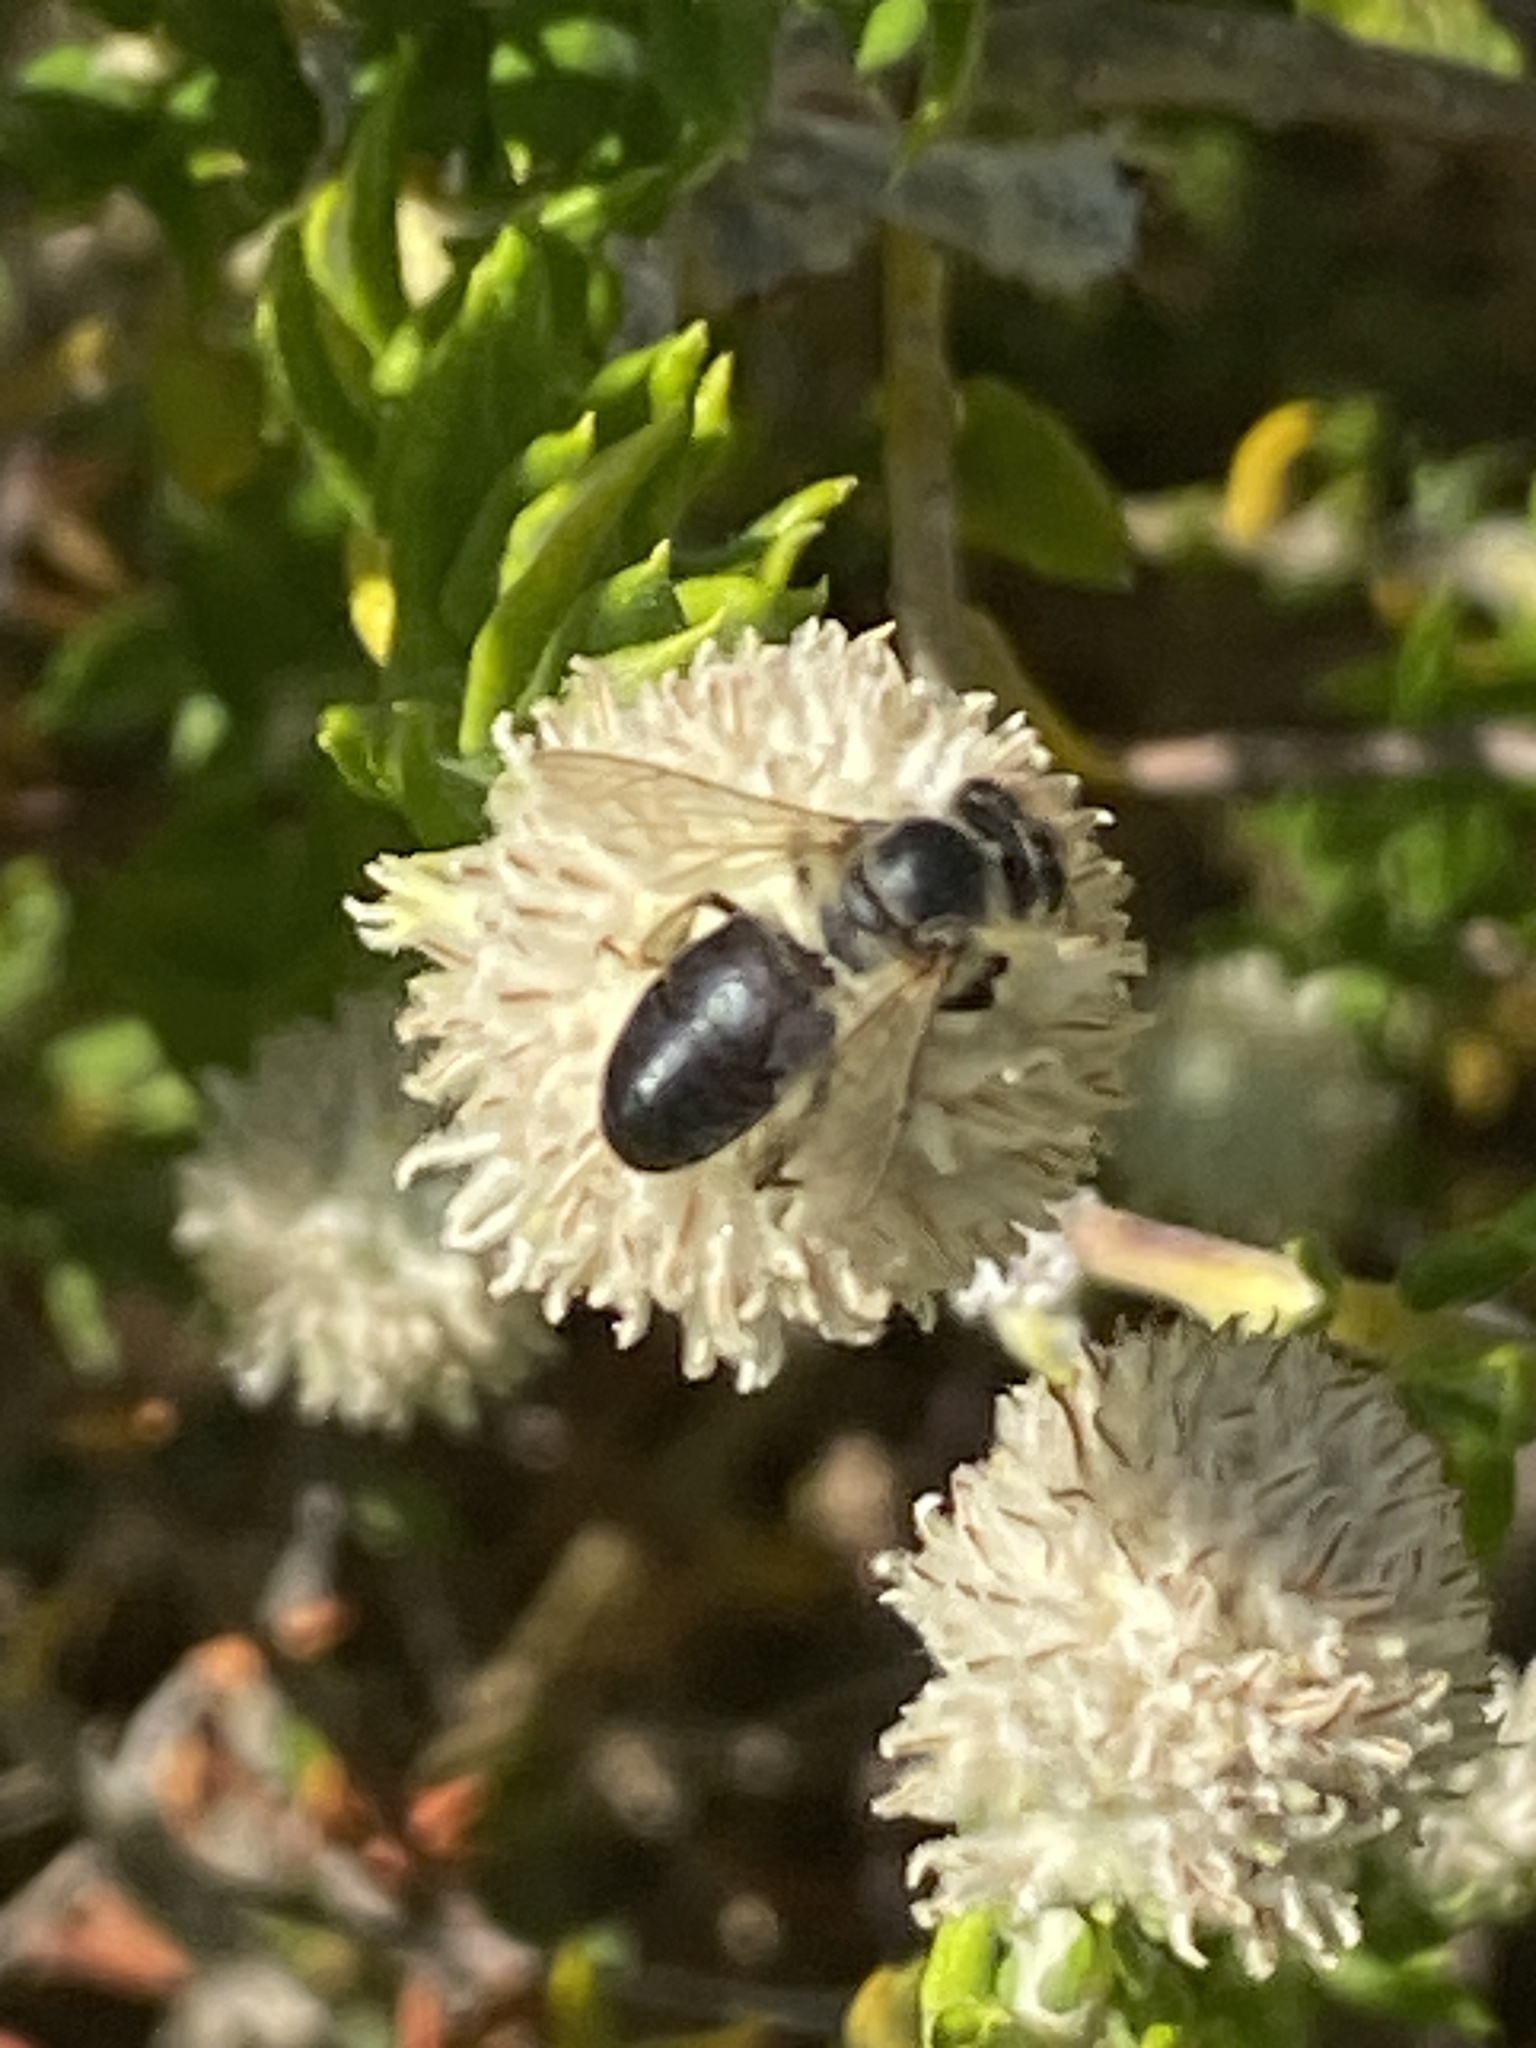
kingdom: Animalia
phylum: Arthropoda
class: Insecta
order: Hymenoptera
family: Apidae
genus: Apis
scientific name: Apis mellifera
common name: Honey bee
